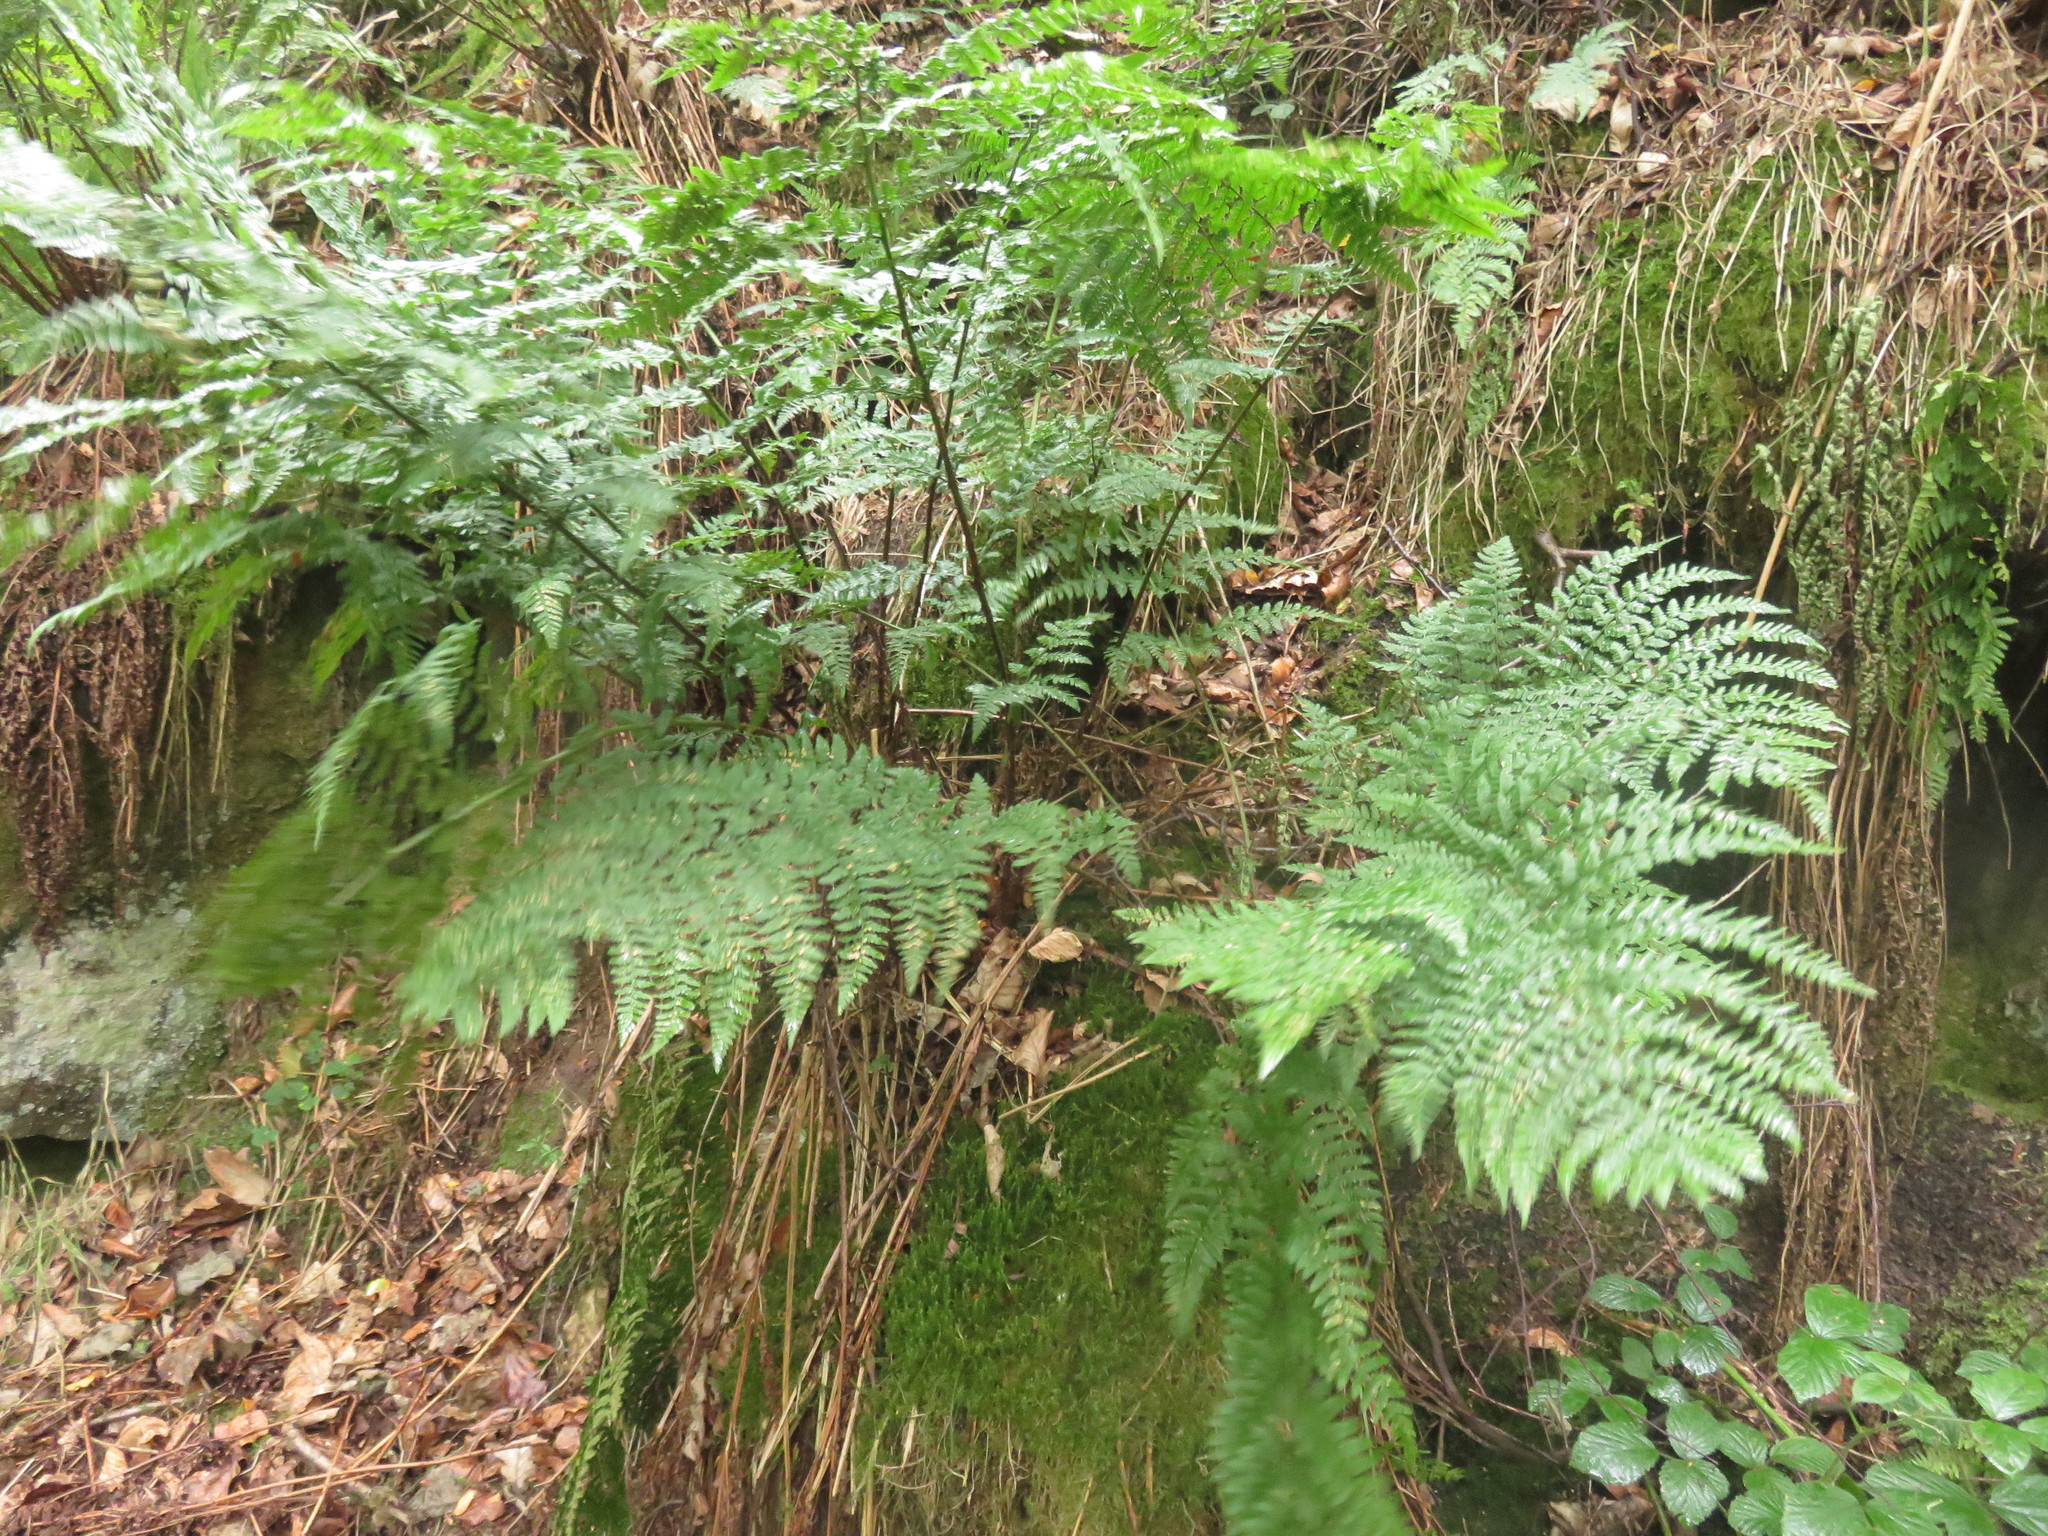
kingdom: Plantae
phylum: Tracheophyta
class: Polypodiopsida
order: Polypodiales
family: Dryopteridaceae
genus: Dryopteris
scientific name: Dryopteris dilatata
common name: Broad buckler-fern
